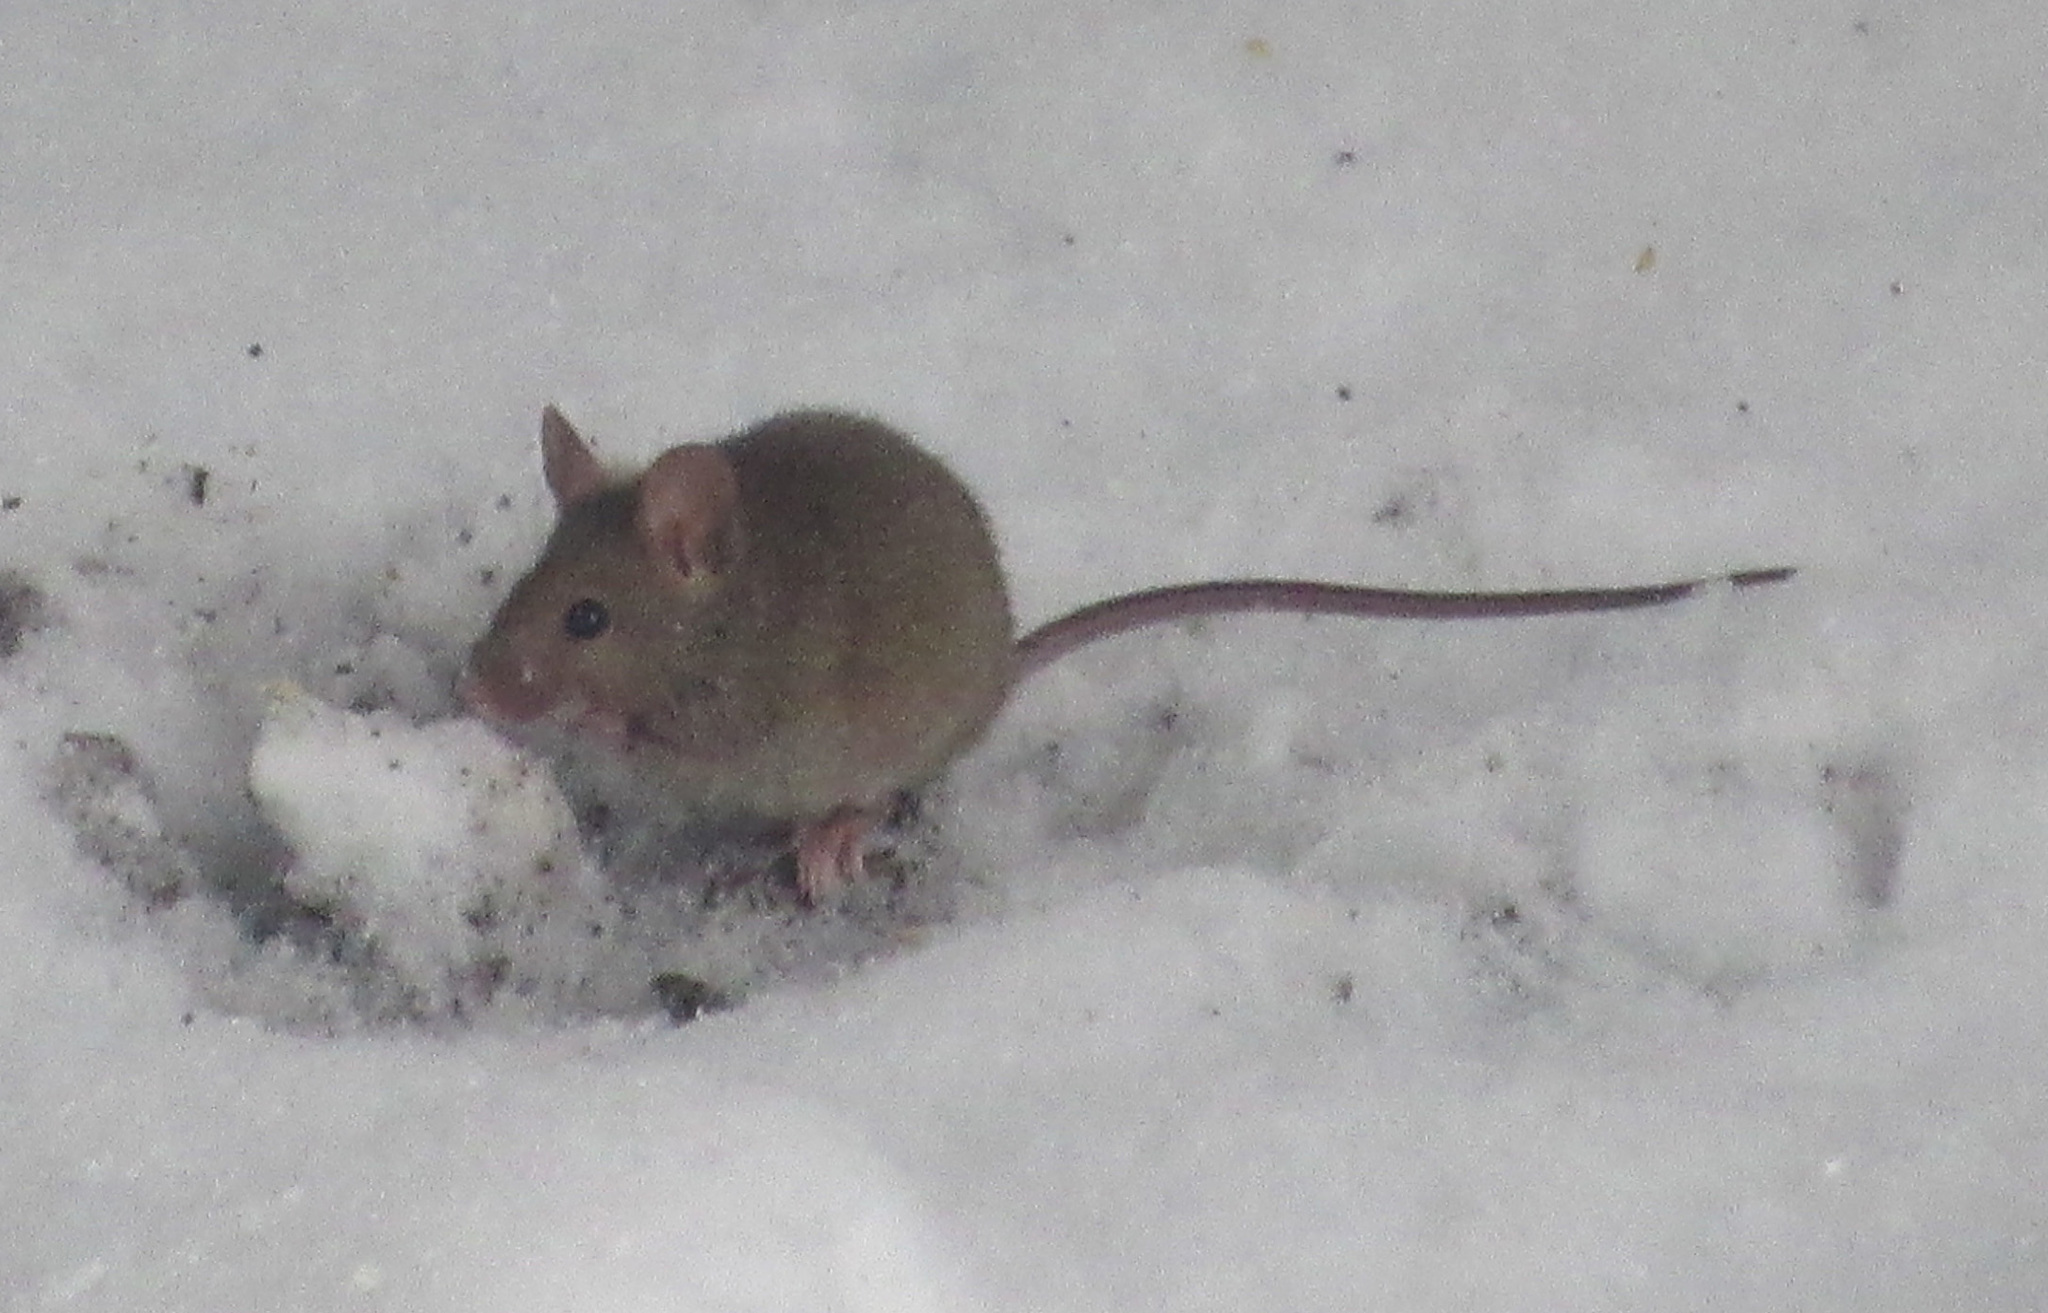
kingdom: Animalia
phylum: Chordata
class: Mammalia
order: Rodentia
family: Muridae
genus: Mus
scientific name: Mus musculus
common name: House mouse
